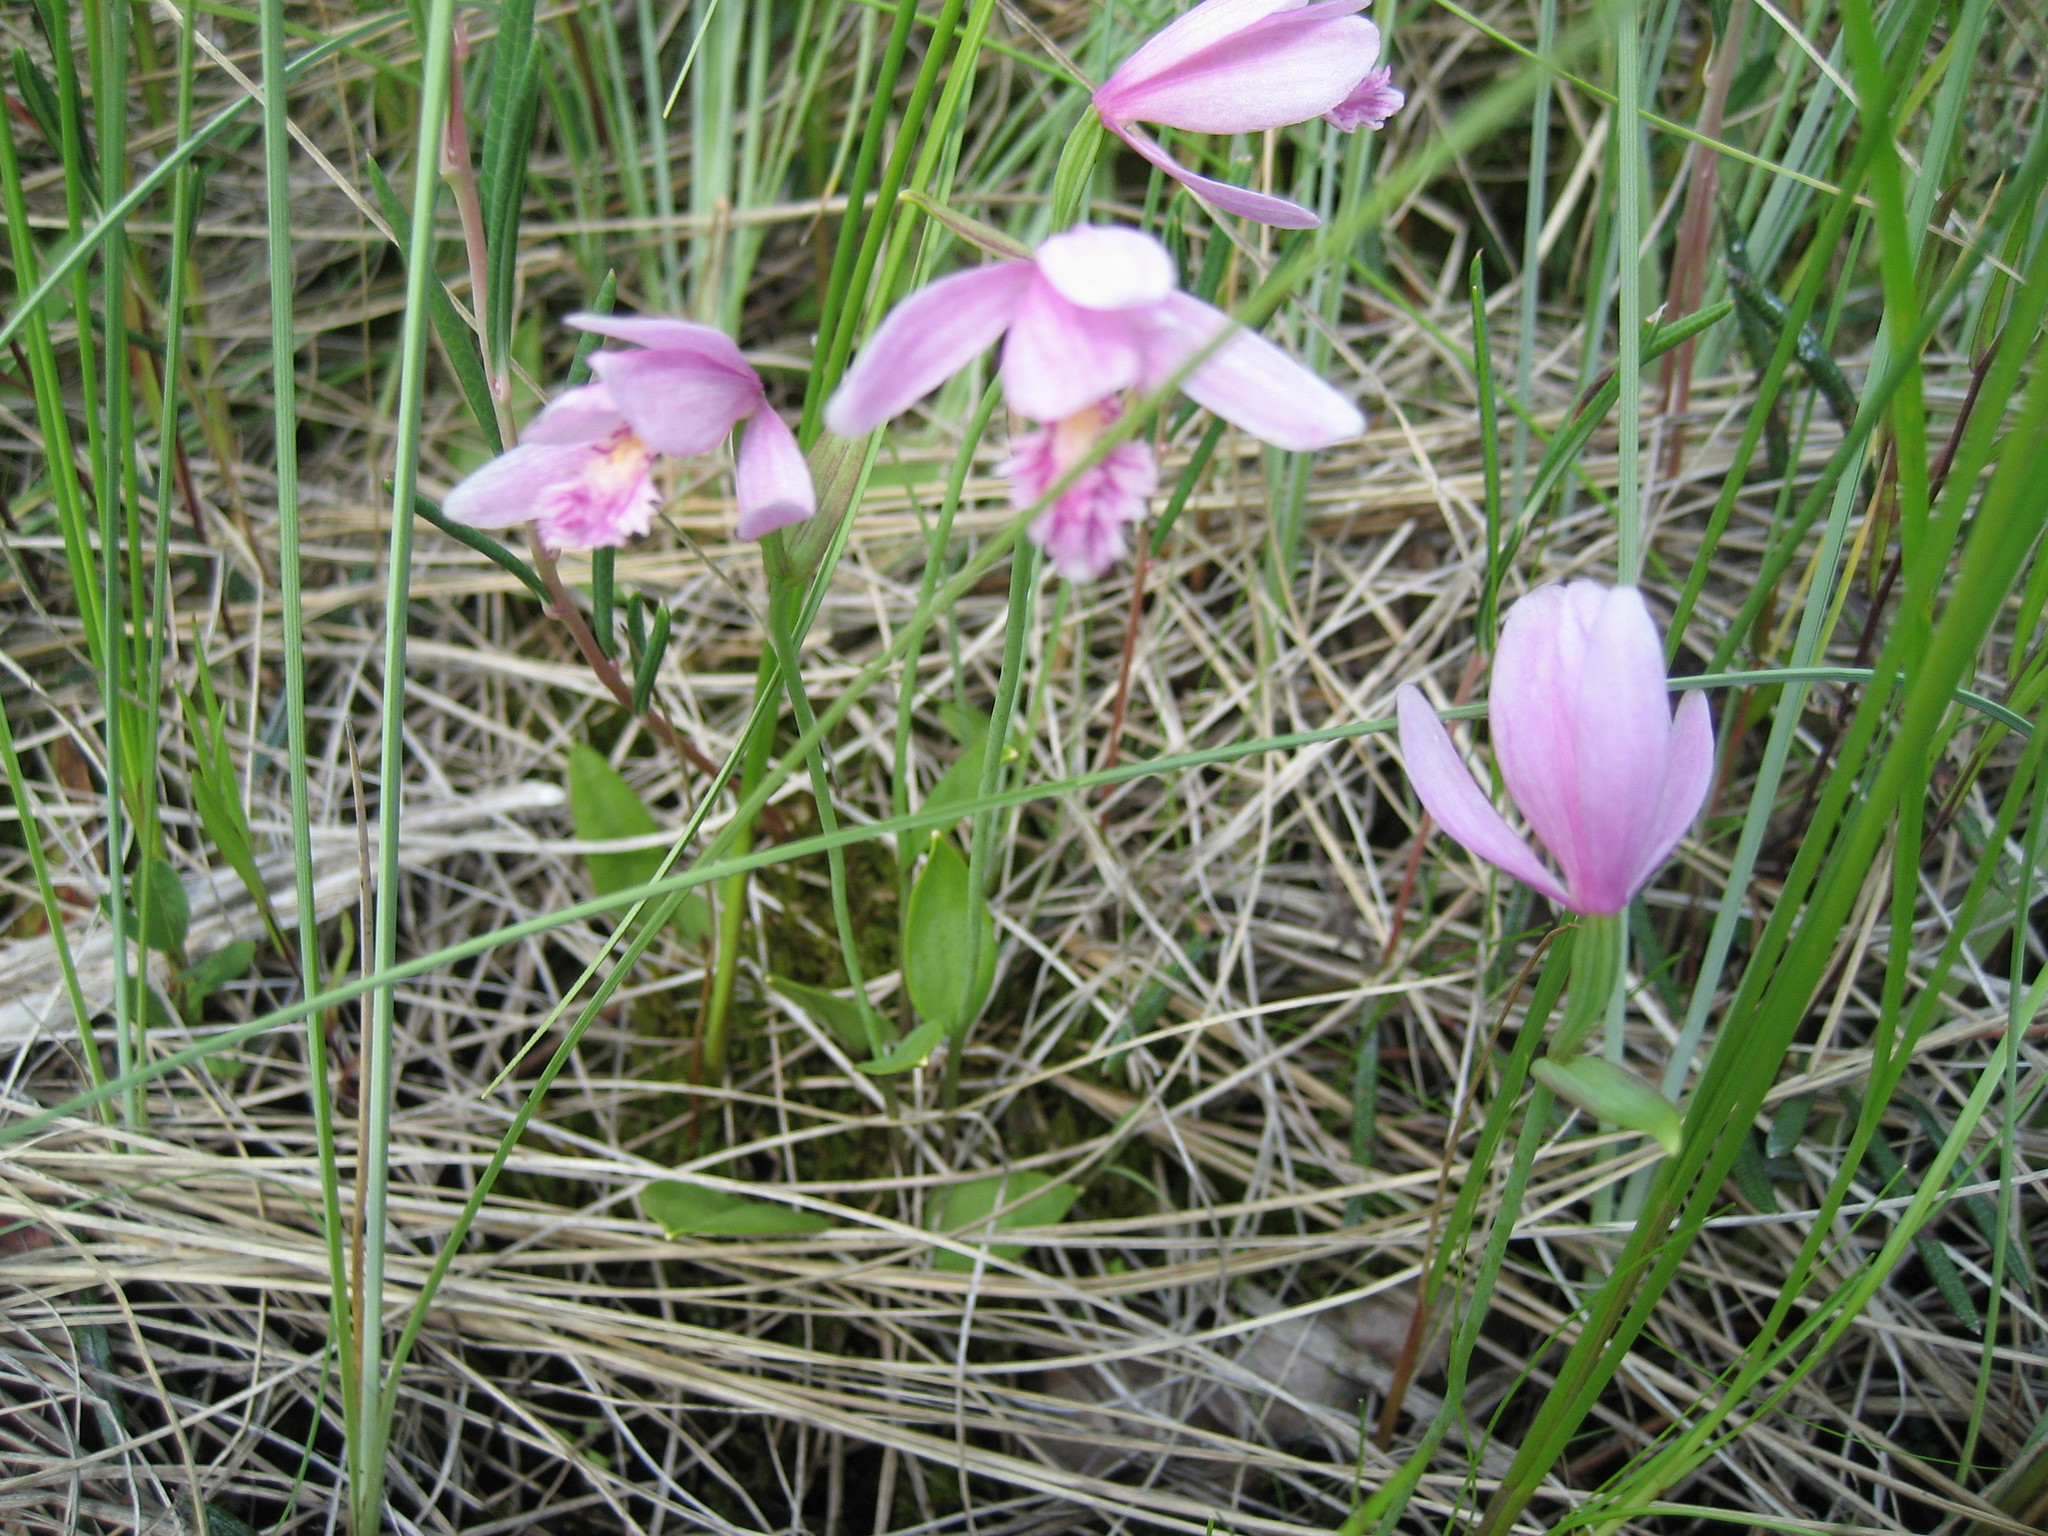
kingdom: Plantae
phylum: Tracheophyta
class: Liliopsida
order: Asparagales
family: Orchidaceae
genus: Pogonia
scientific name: Pogonia ophioglossoides
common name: Rose pogonia
